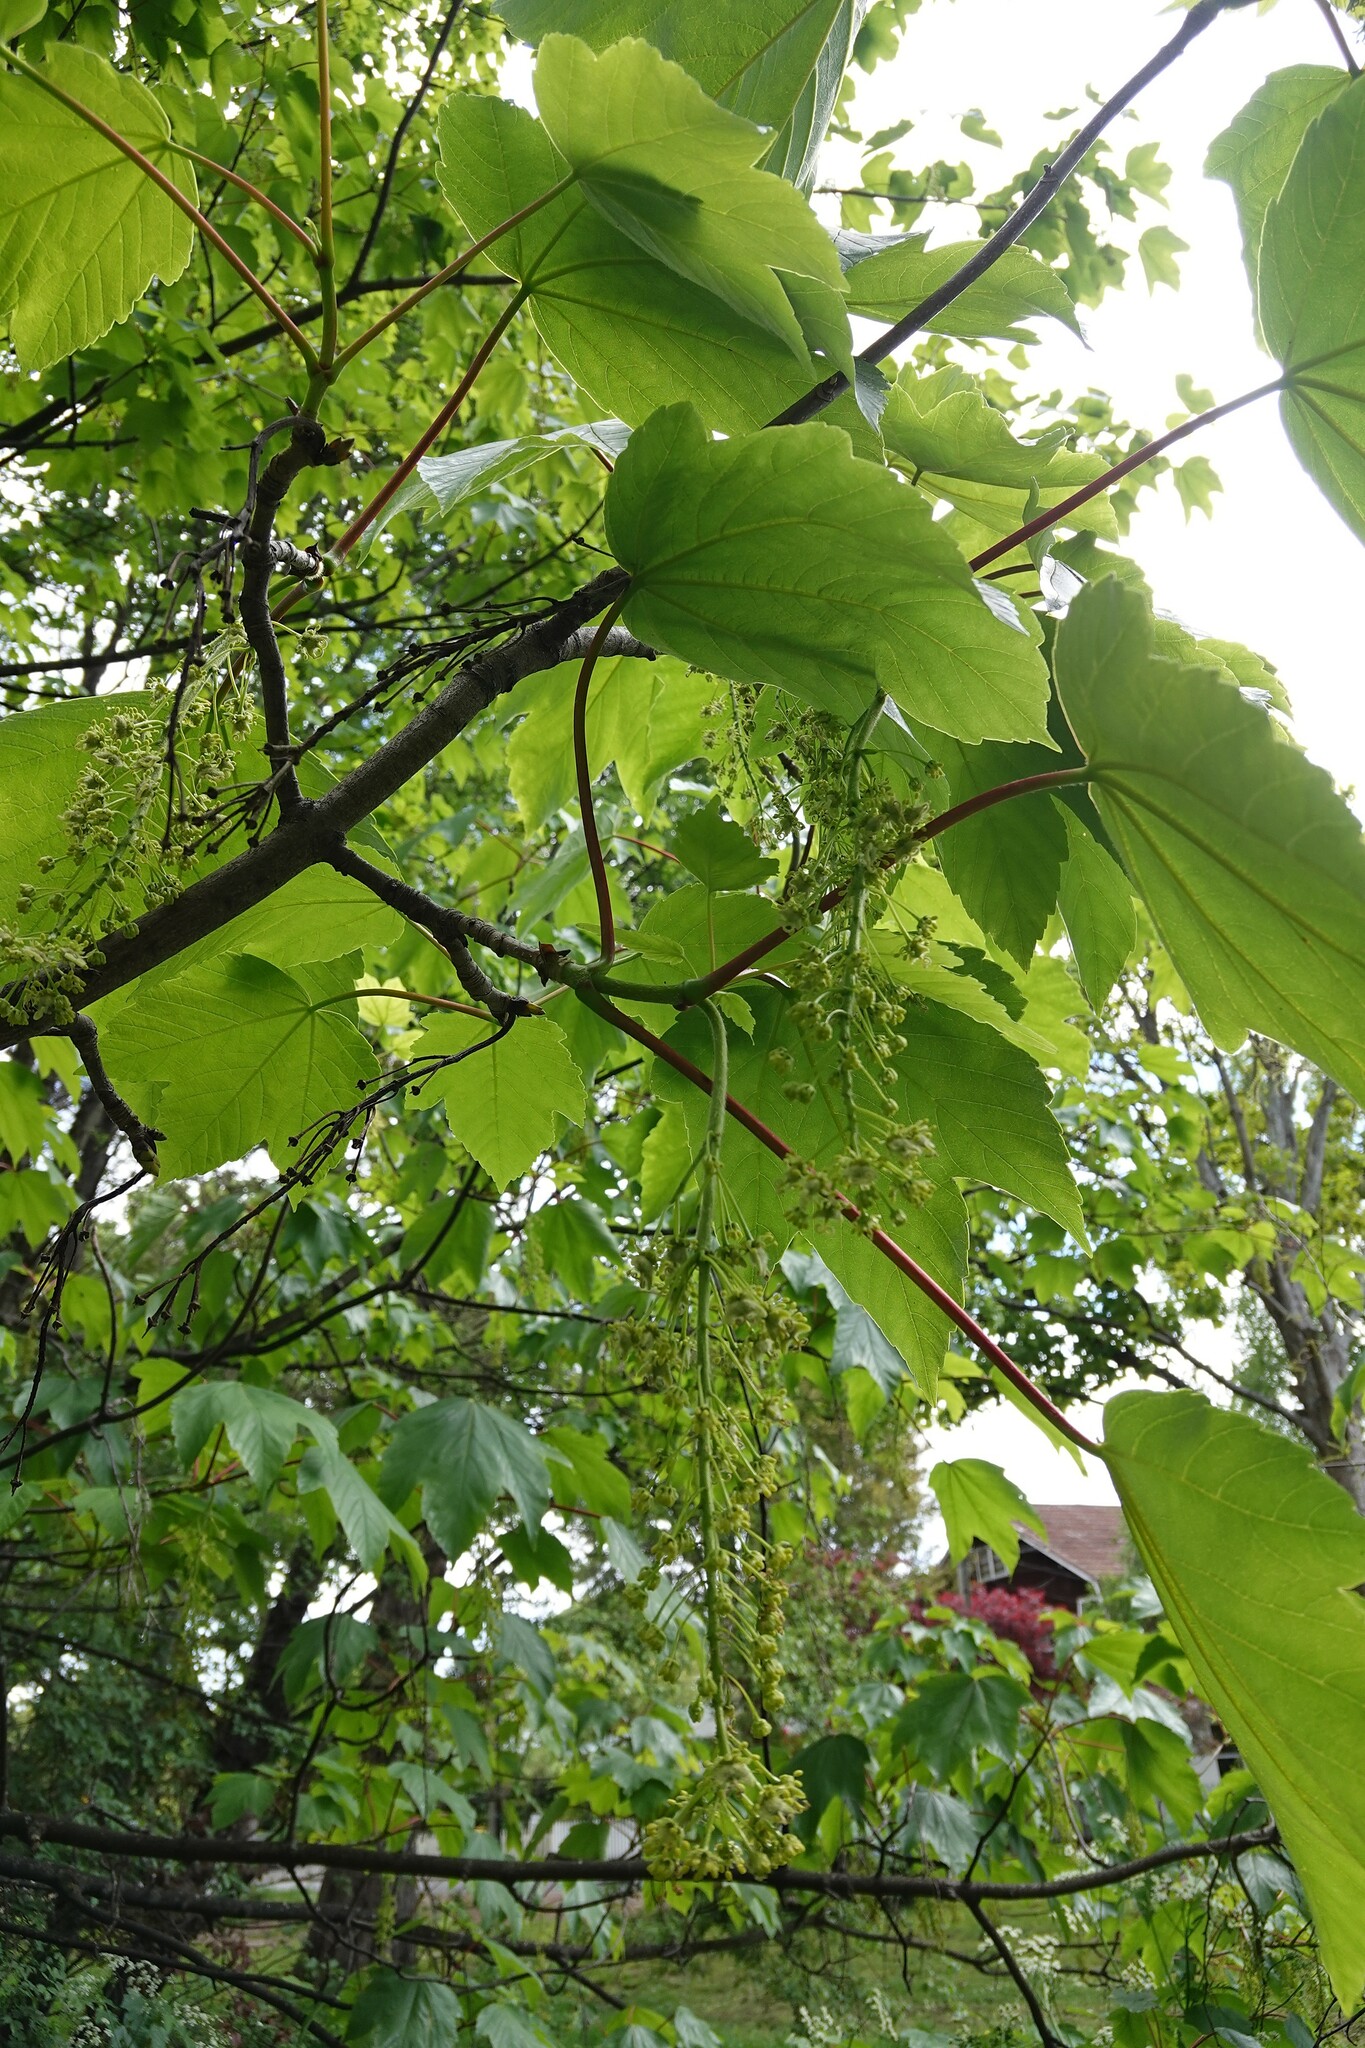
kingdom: Plantae
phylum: Tracheophyta
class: Magnoliopsida
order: Sapindales
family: Sapindaceae
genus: Acer
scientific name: Acer pseudoplatanus
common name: Sycamore
